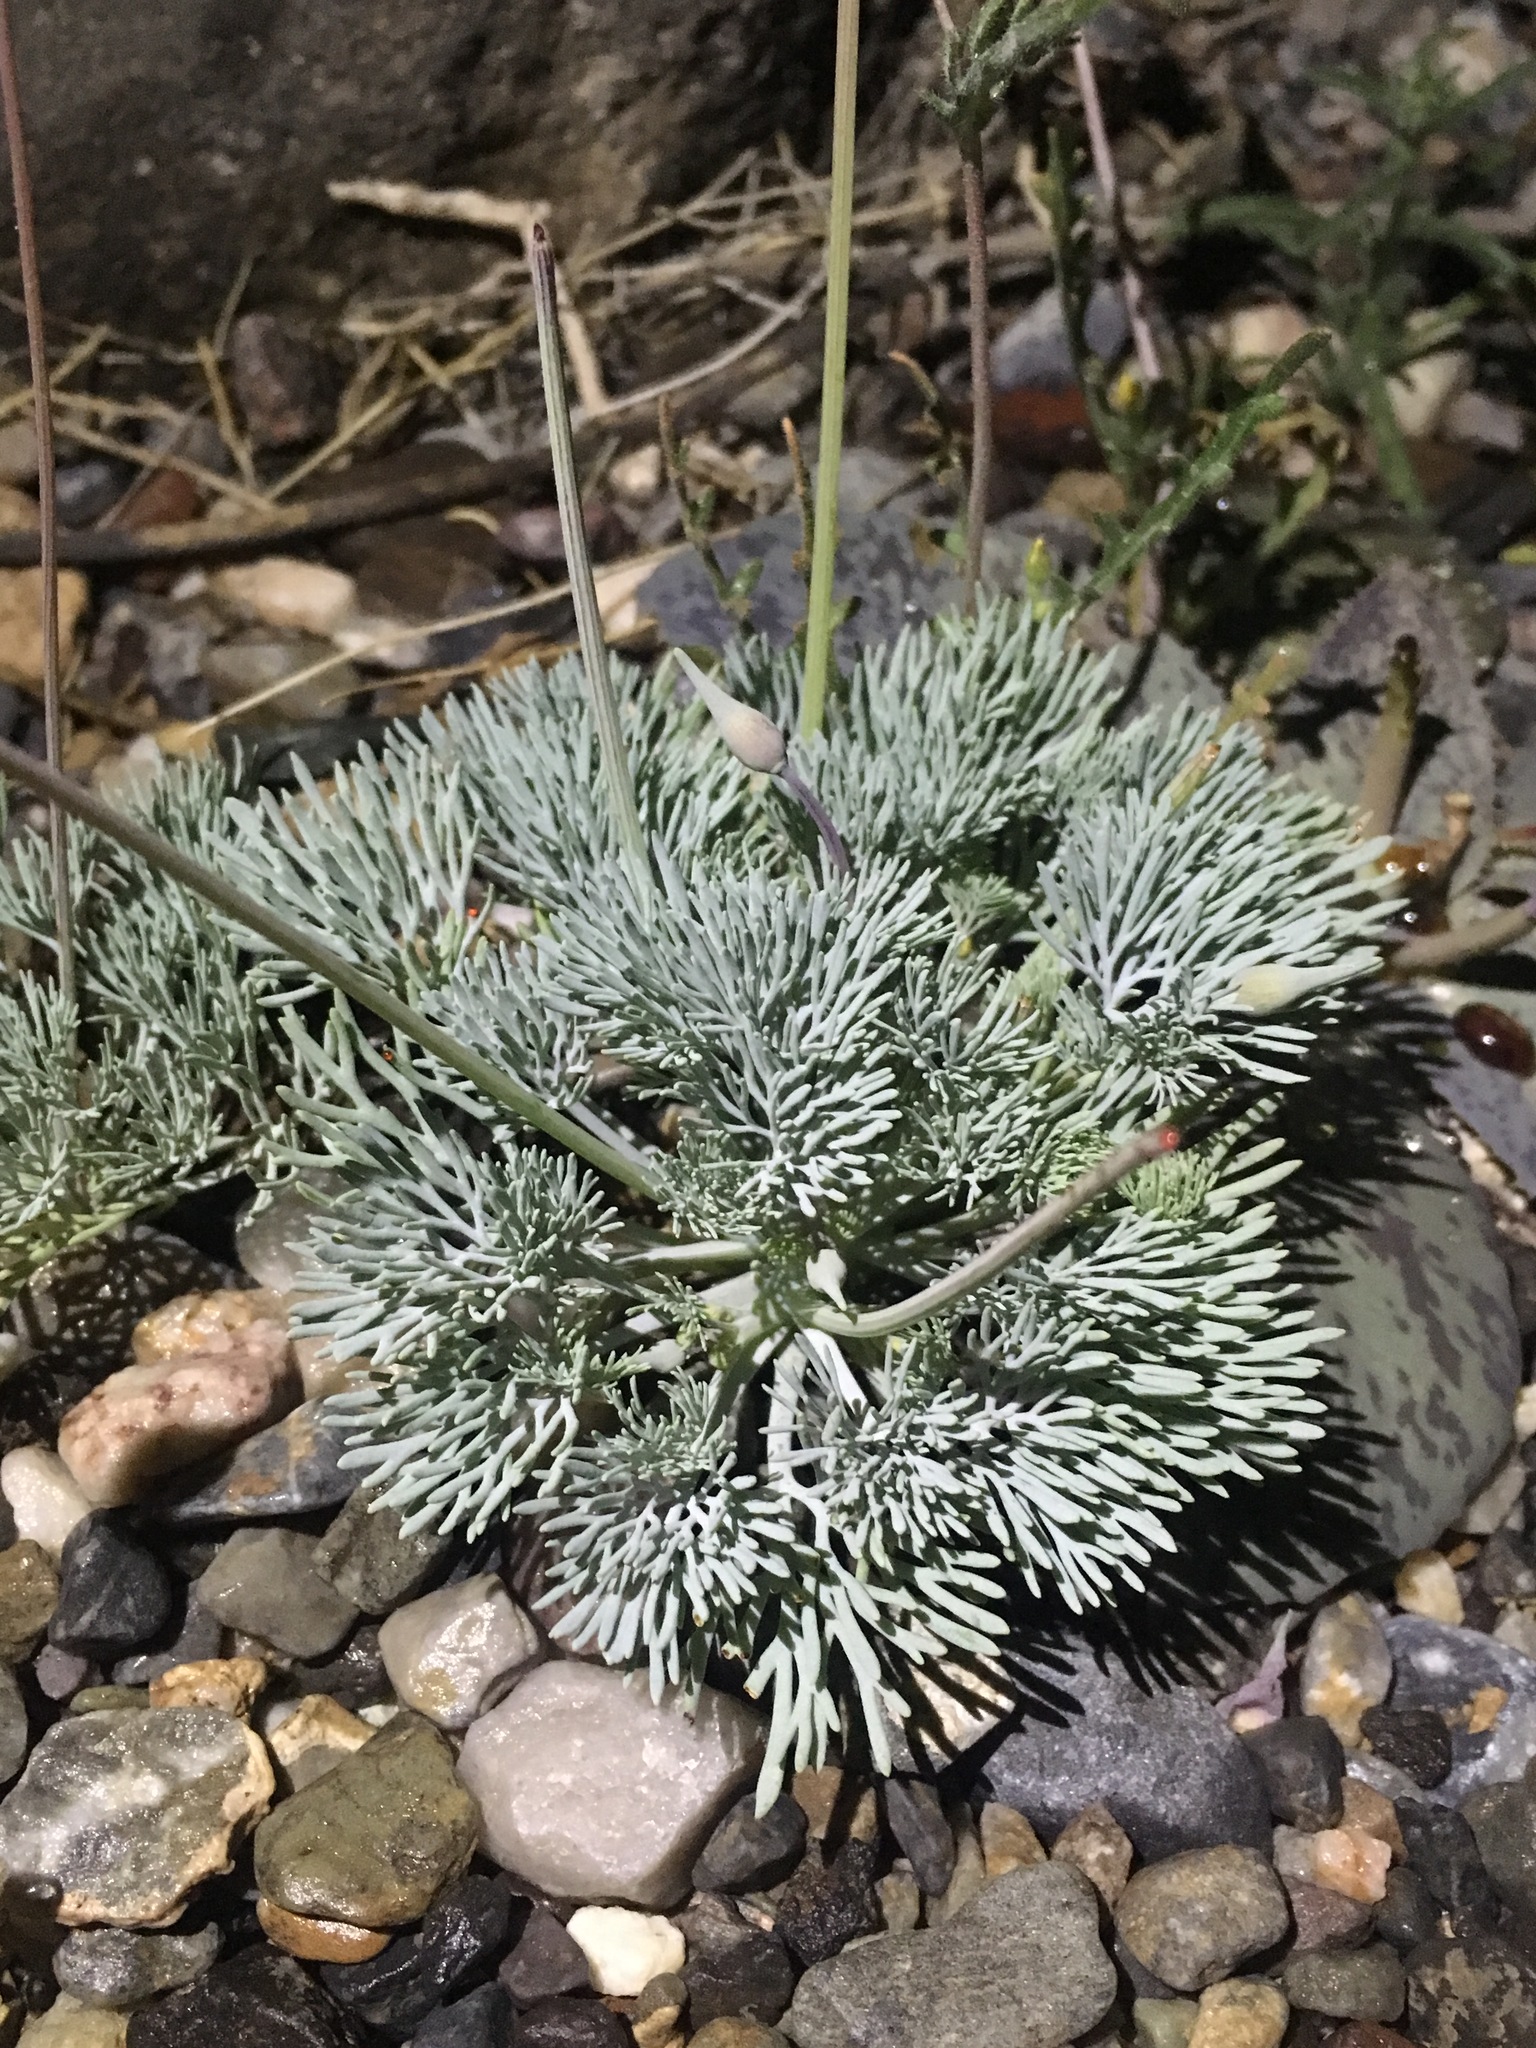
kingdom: Plantae
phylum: Tracheophyta
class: Magnoliopsida
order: Ranunculales
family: Papaveraceae
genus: Eschscholzia
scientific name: Eschscholzia glyptosperma
